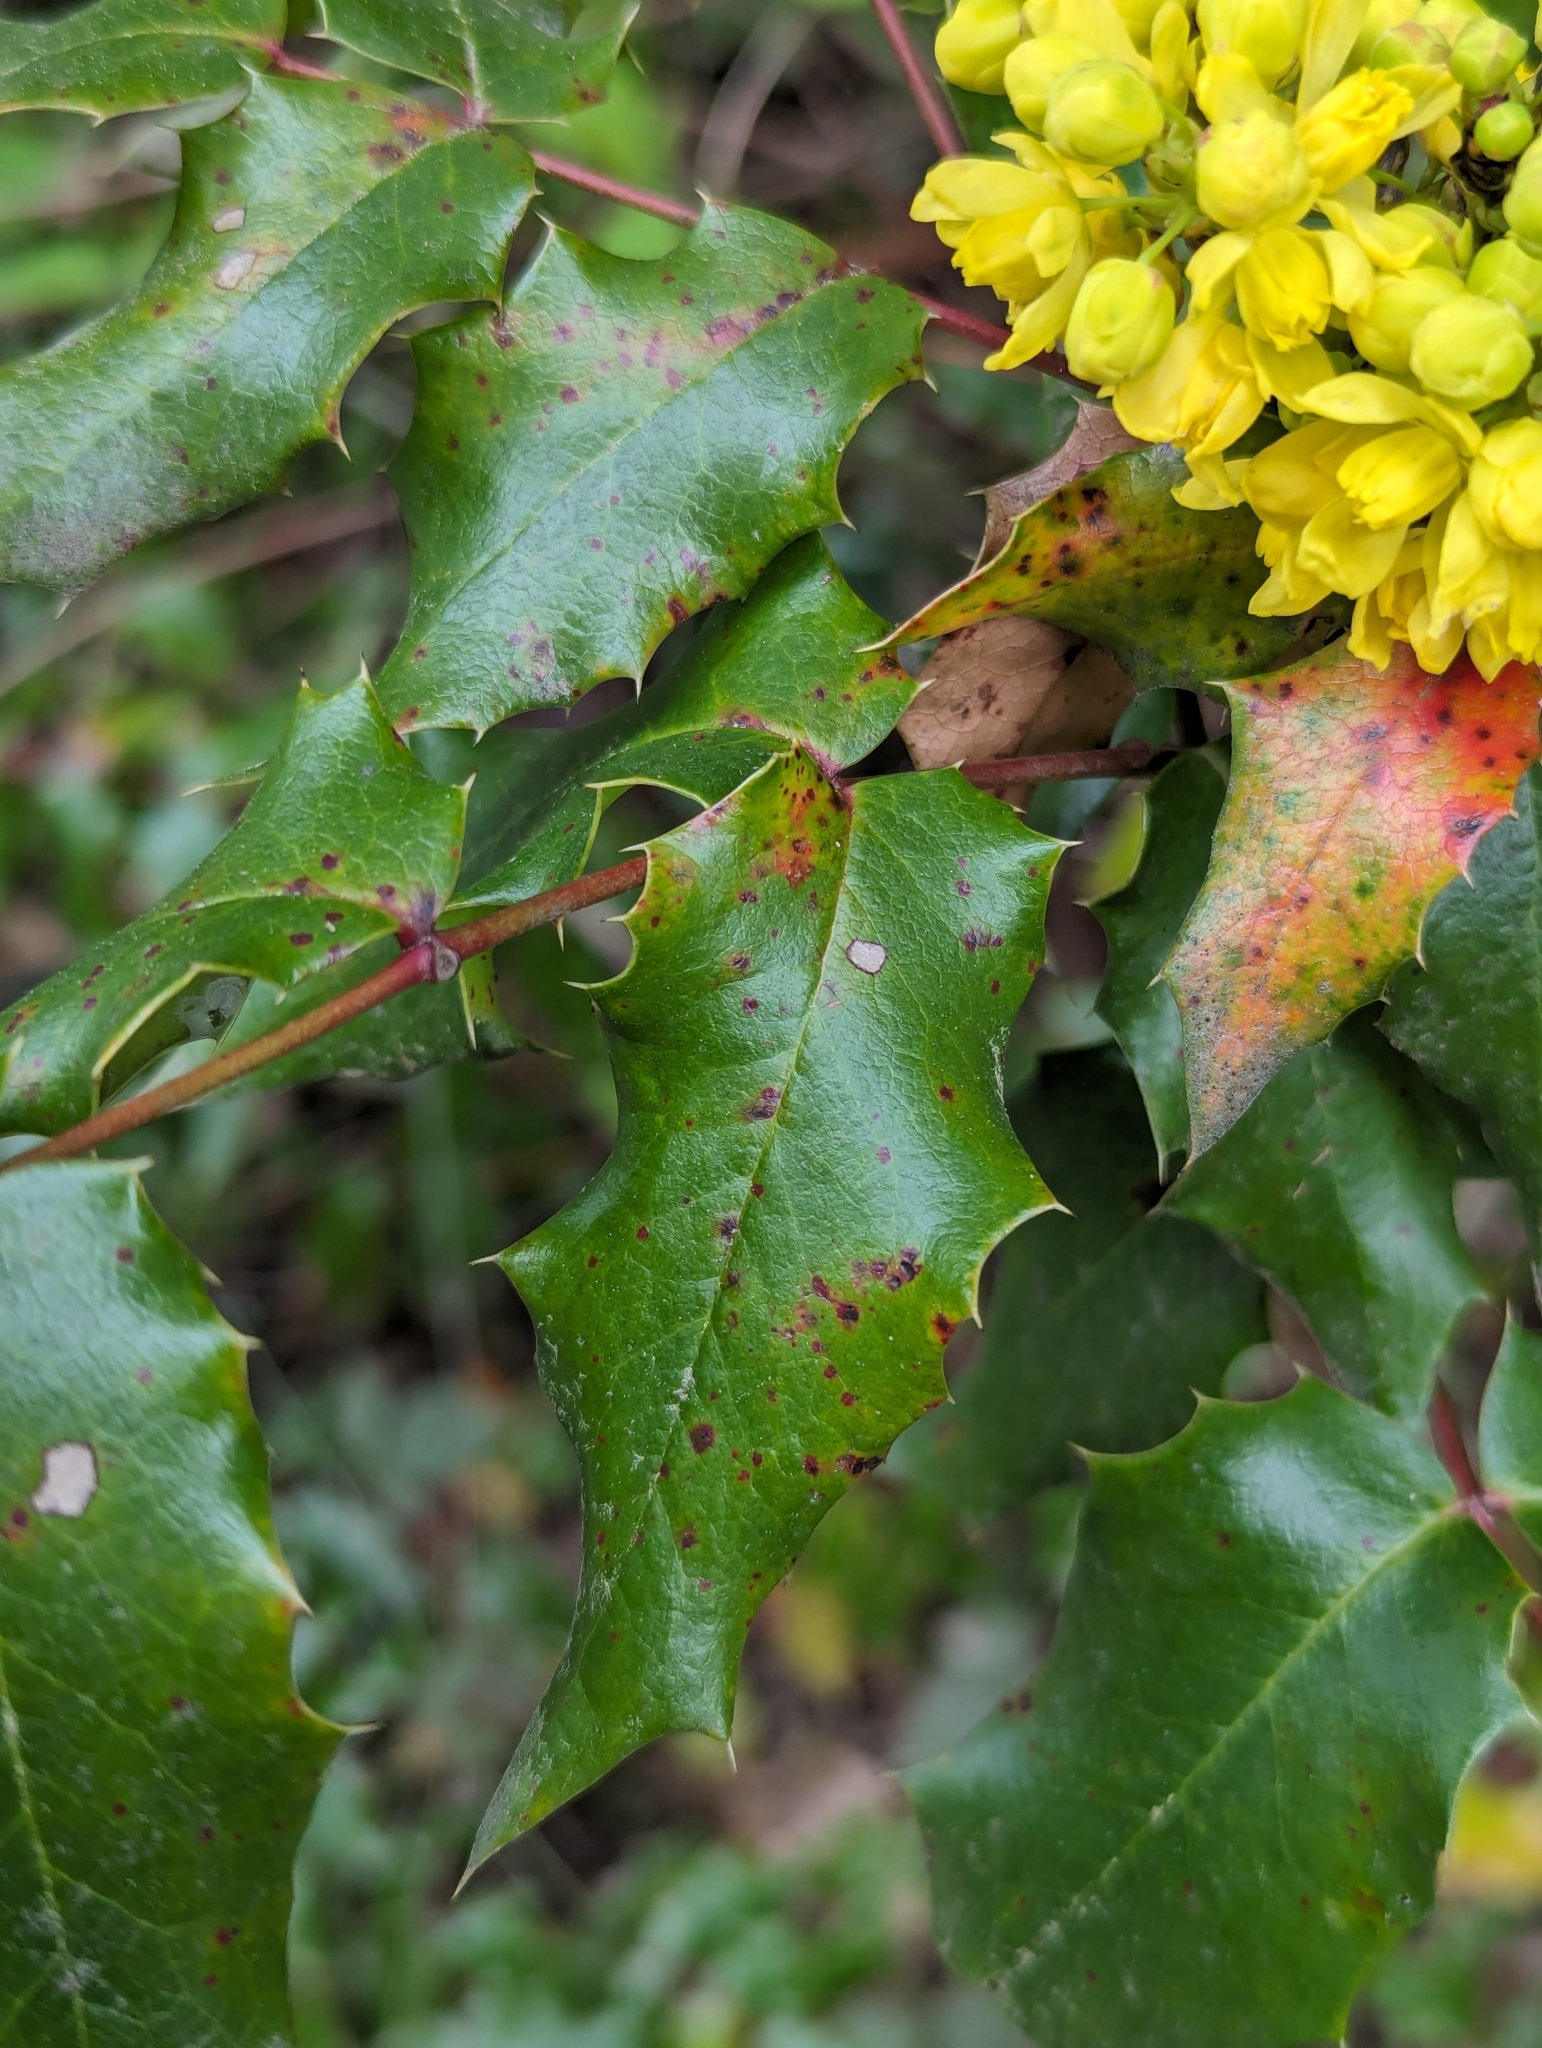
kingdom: Plantae
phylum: Tracheophyta
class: Magnoliopsida
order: Ranunculales
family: Berberidaceae
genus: Mahonia
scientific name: Mahonia aquifolium
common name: Oregon-grape
